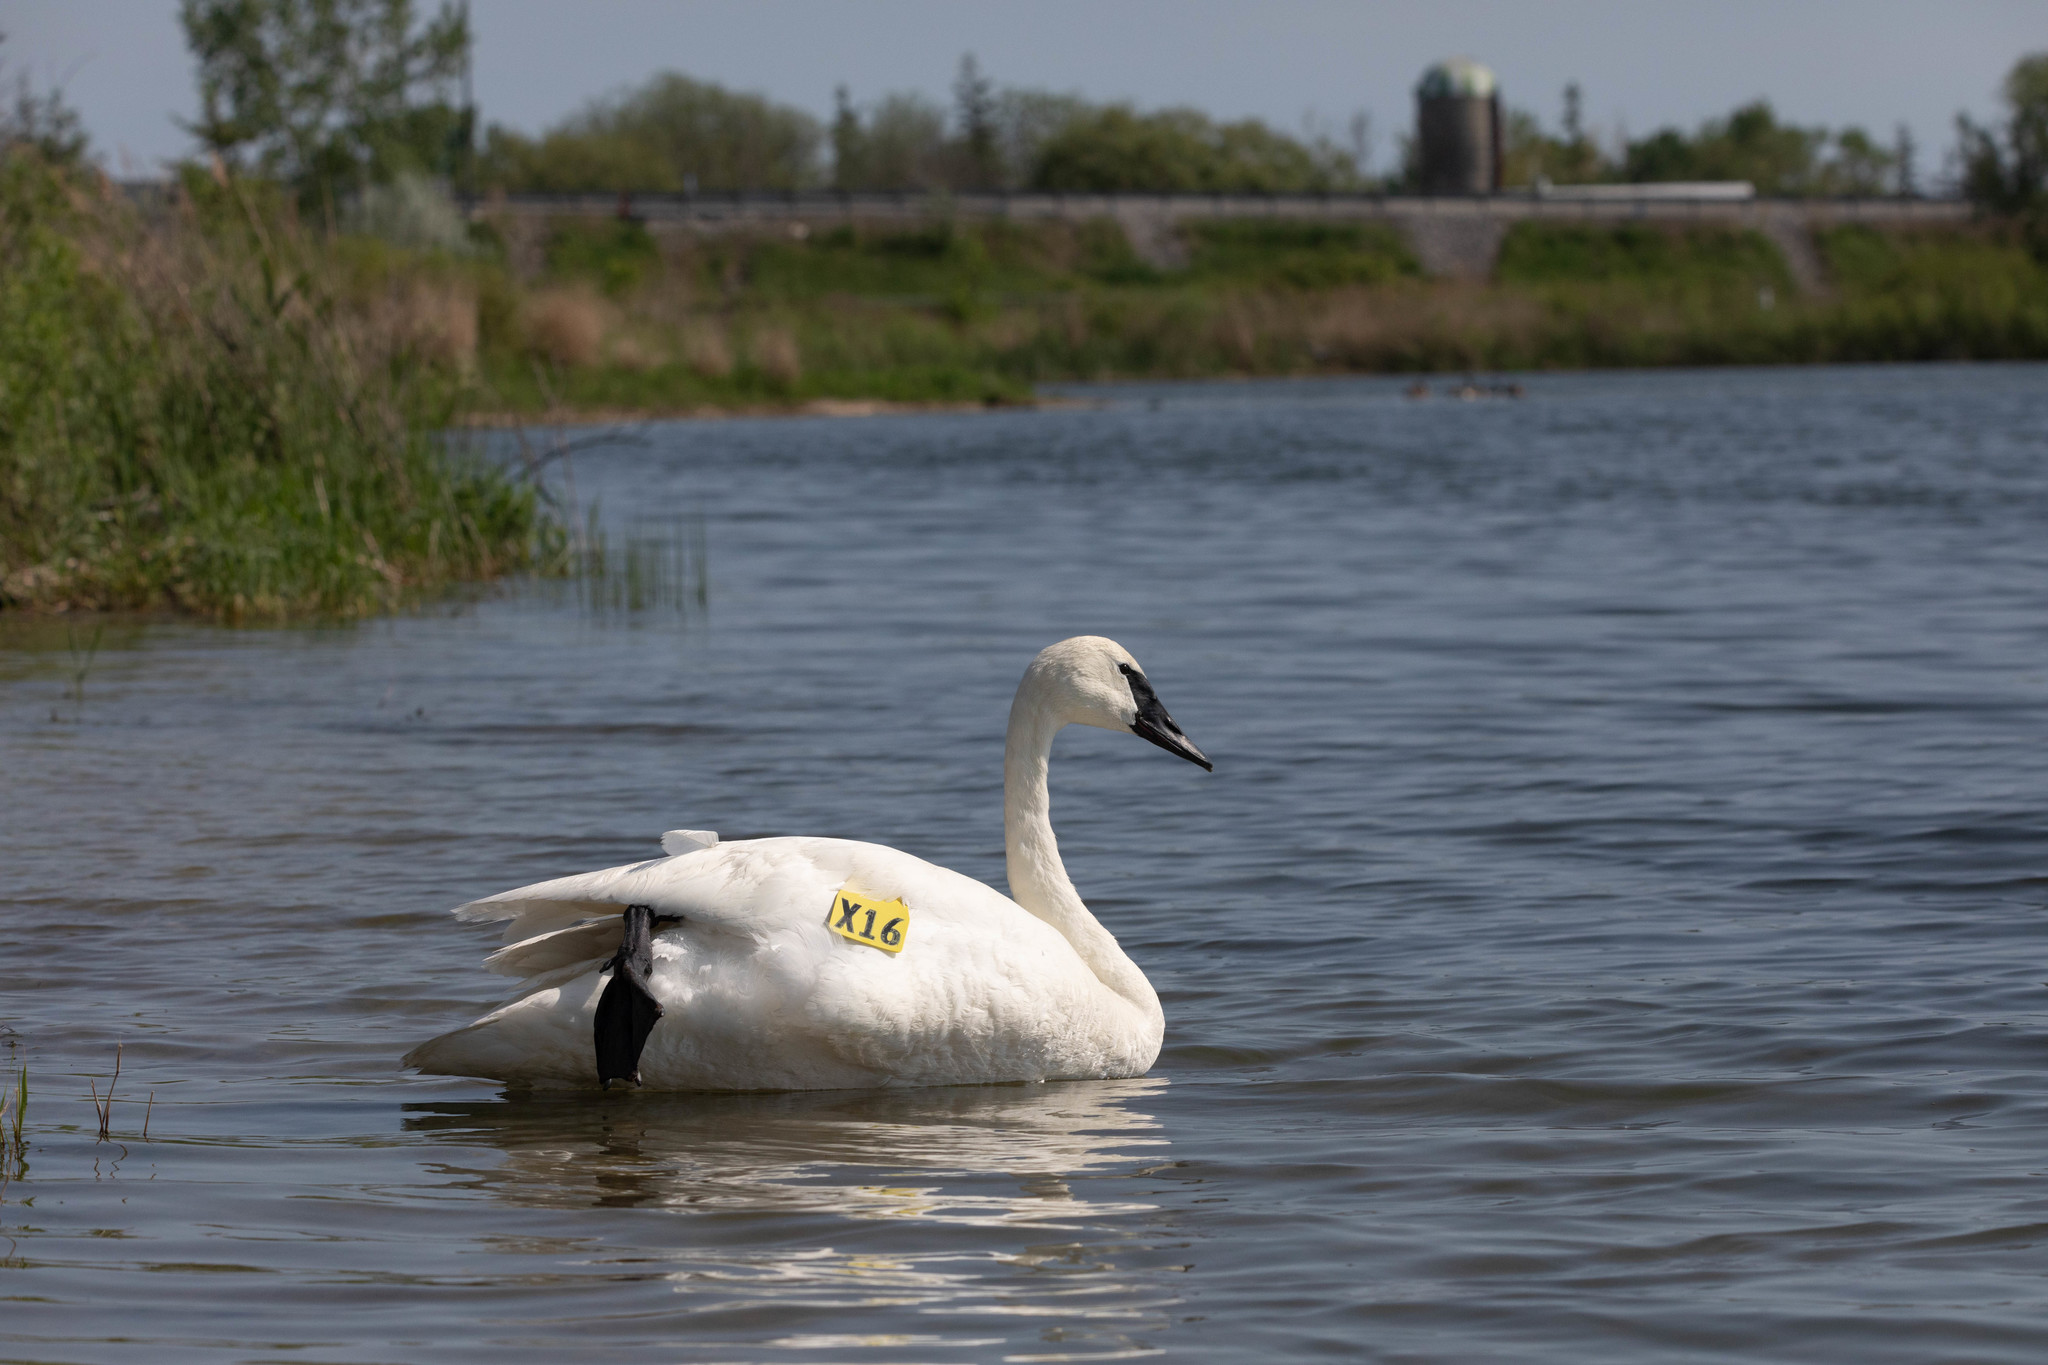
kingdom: Animalia
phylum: Chordata
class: Aves
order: Anseriformes
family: Anatidae
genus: Cygnus
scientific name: Cygnus buccinator
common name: Trumpeter swan
